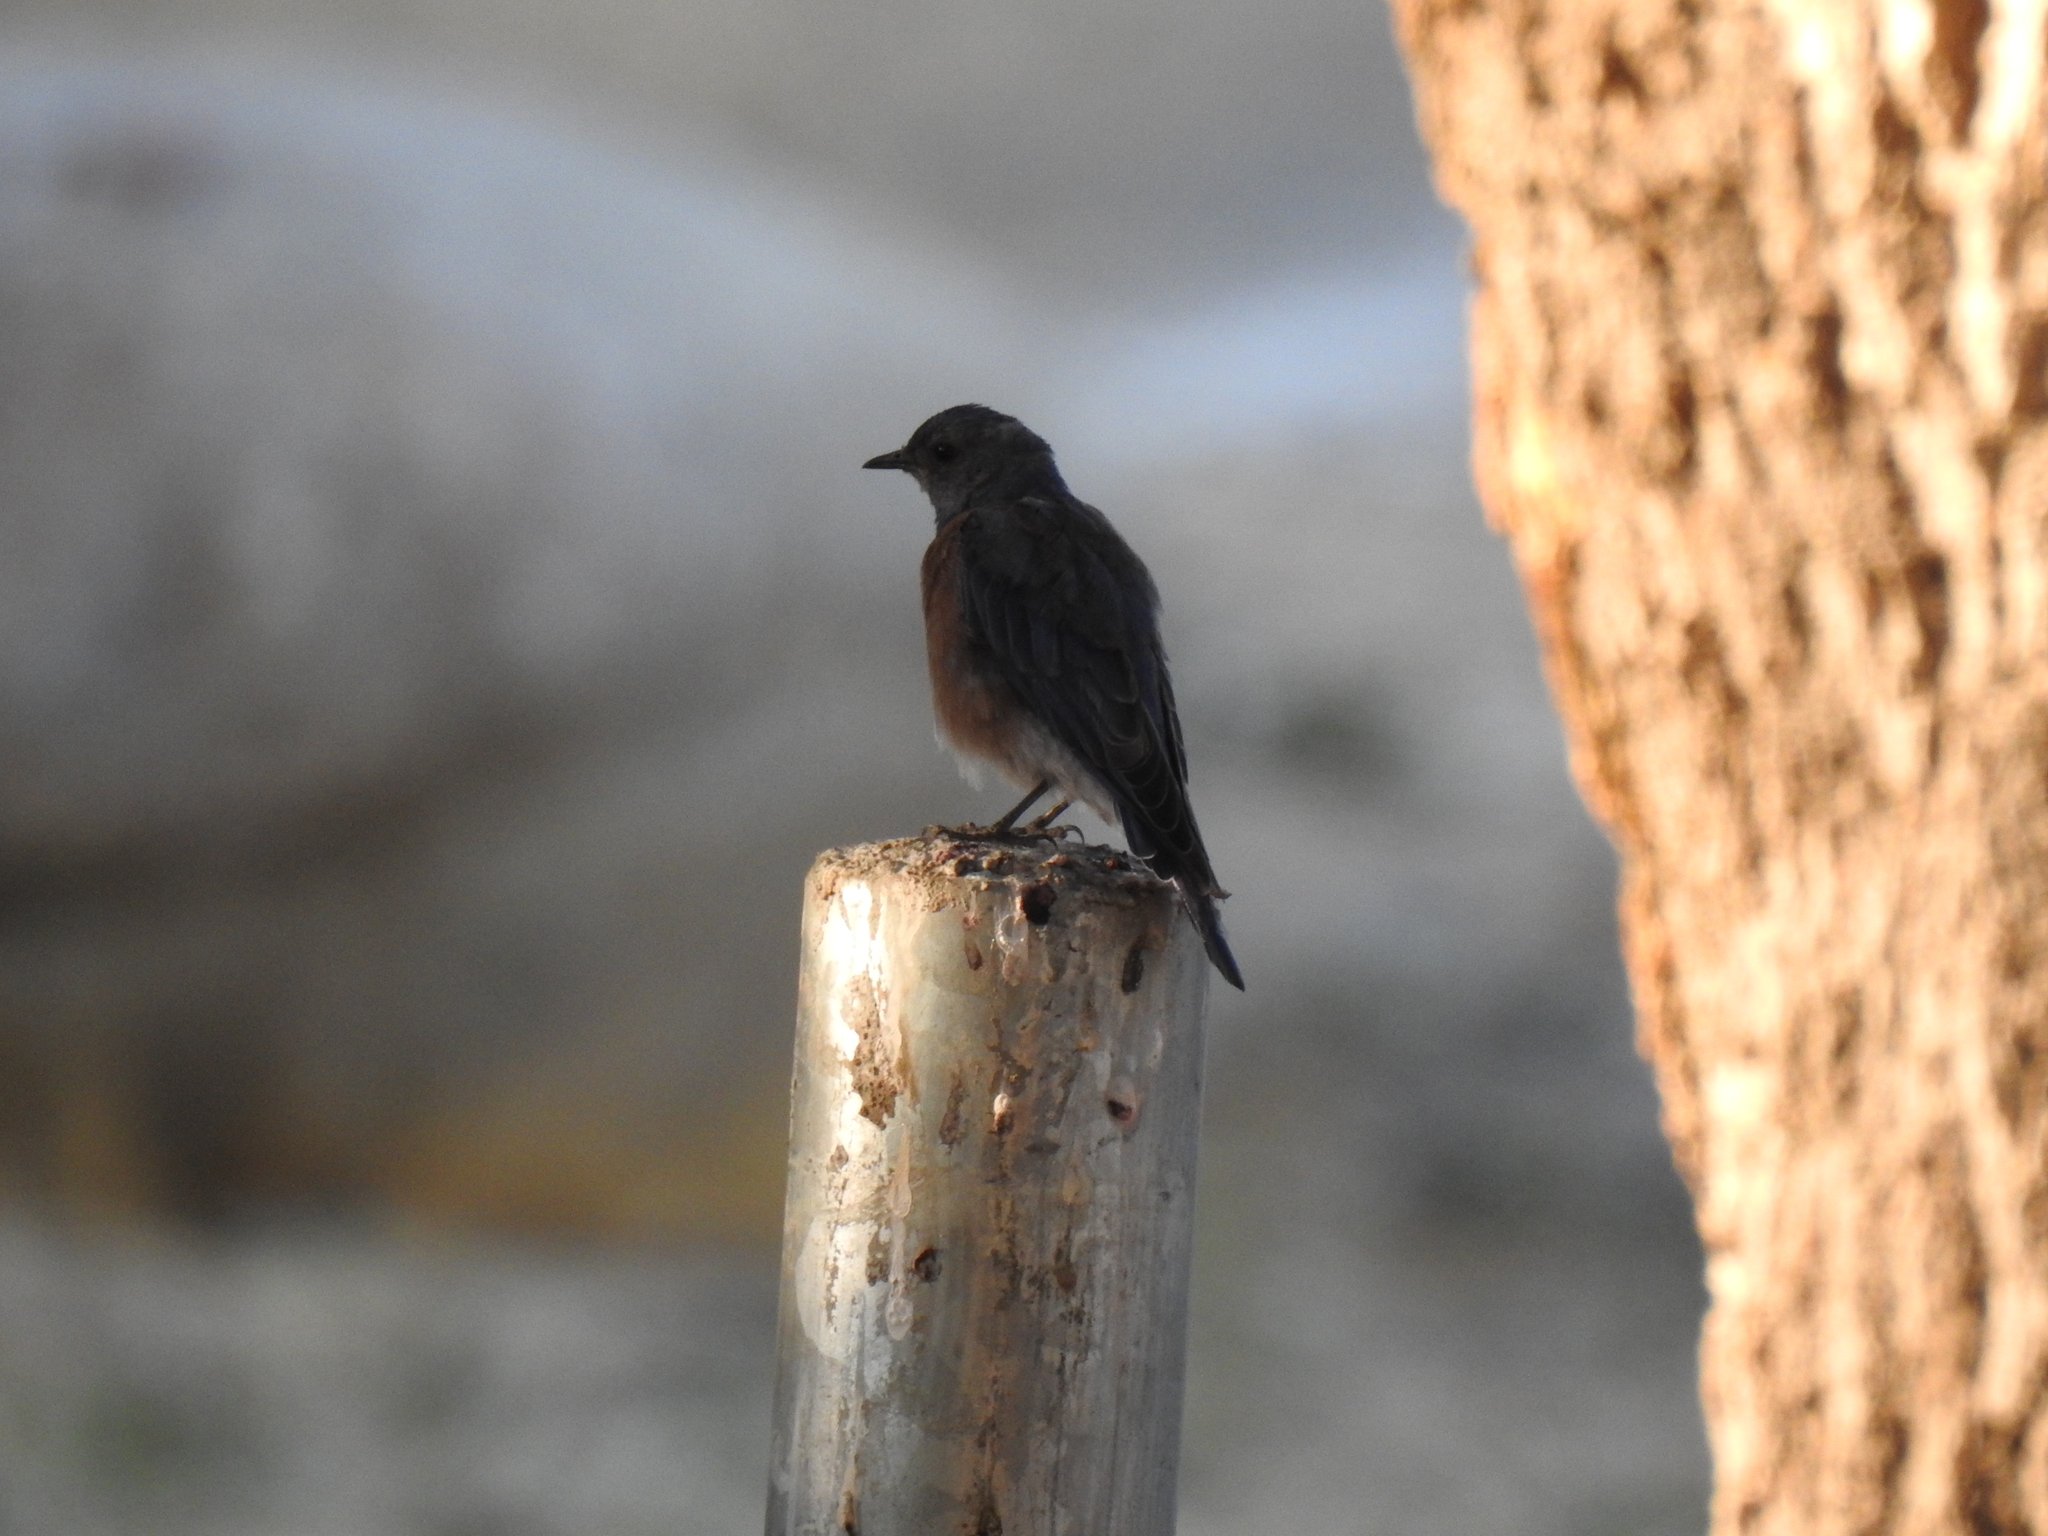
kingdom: Animalia
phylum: Chordata
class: Aves
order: Passeriformes
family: Turdidae
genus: Sialia
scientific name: Sialia mexicana
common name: Western bluebird
